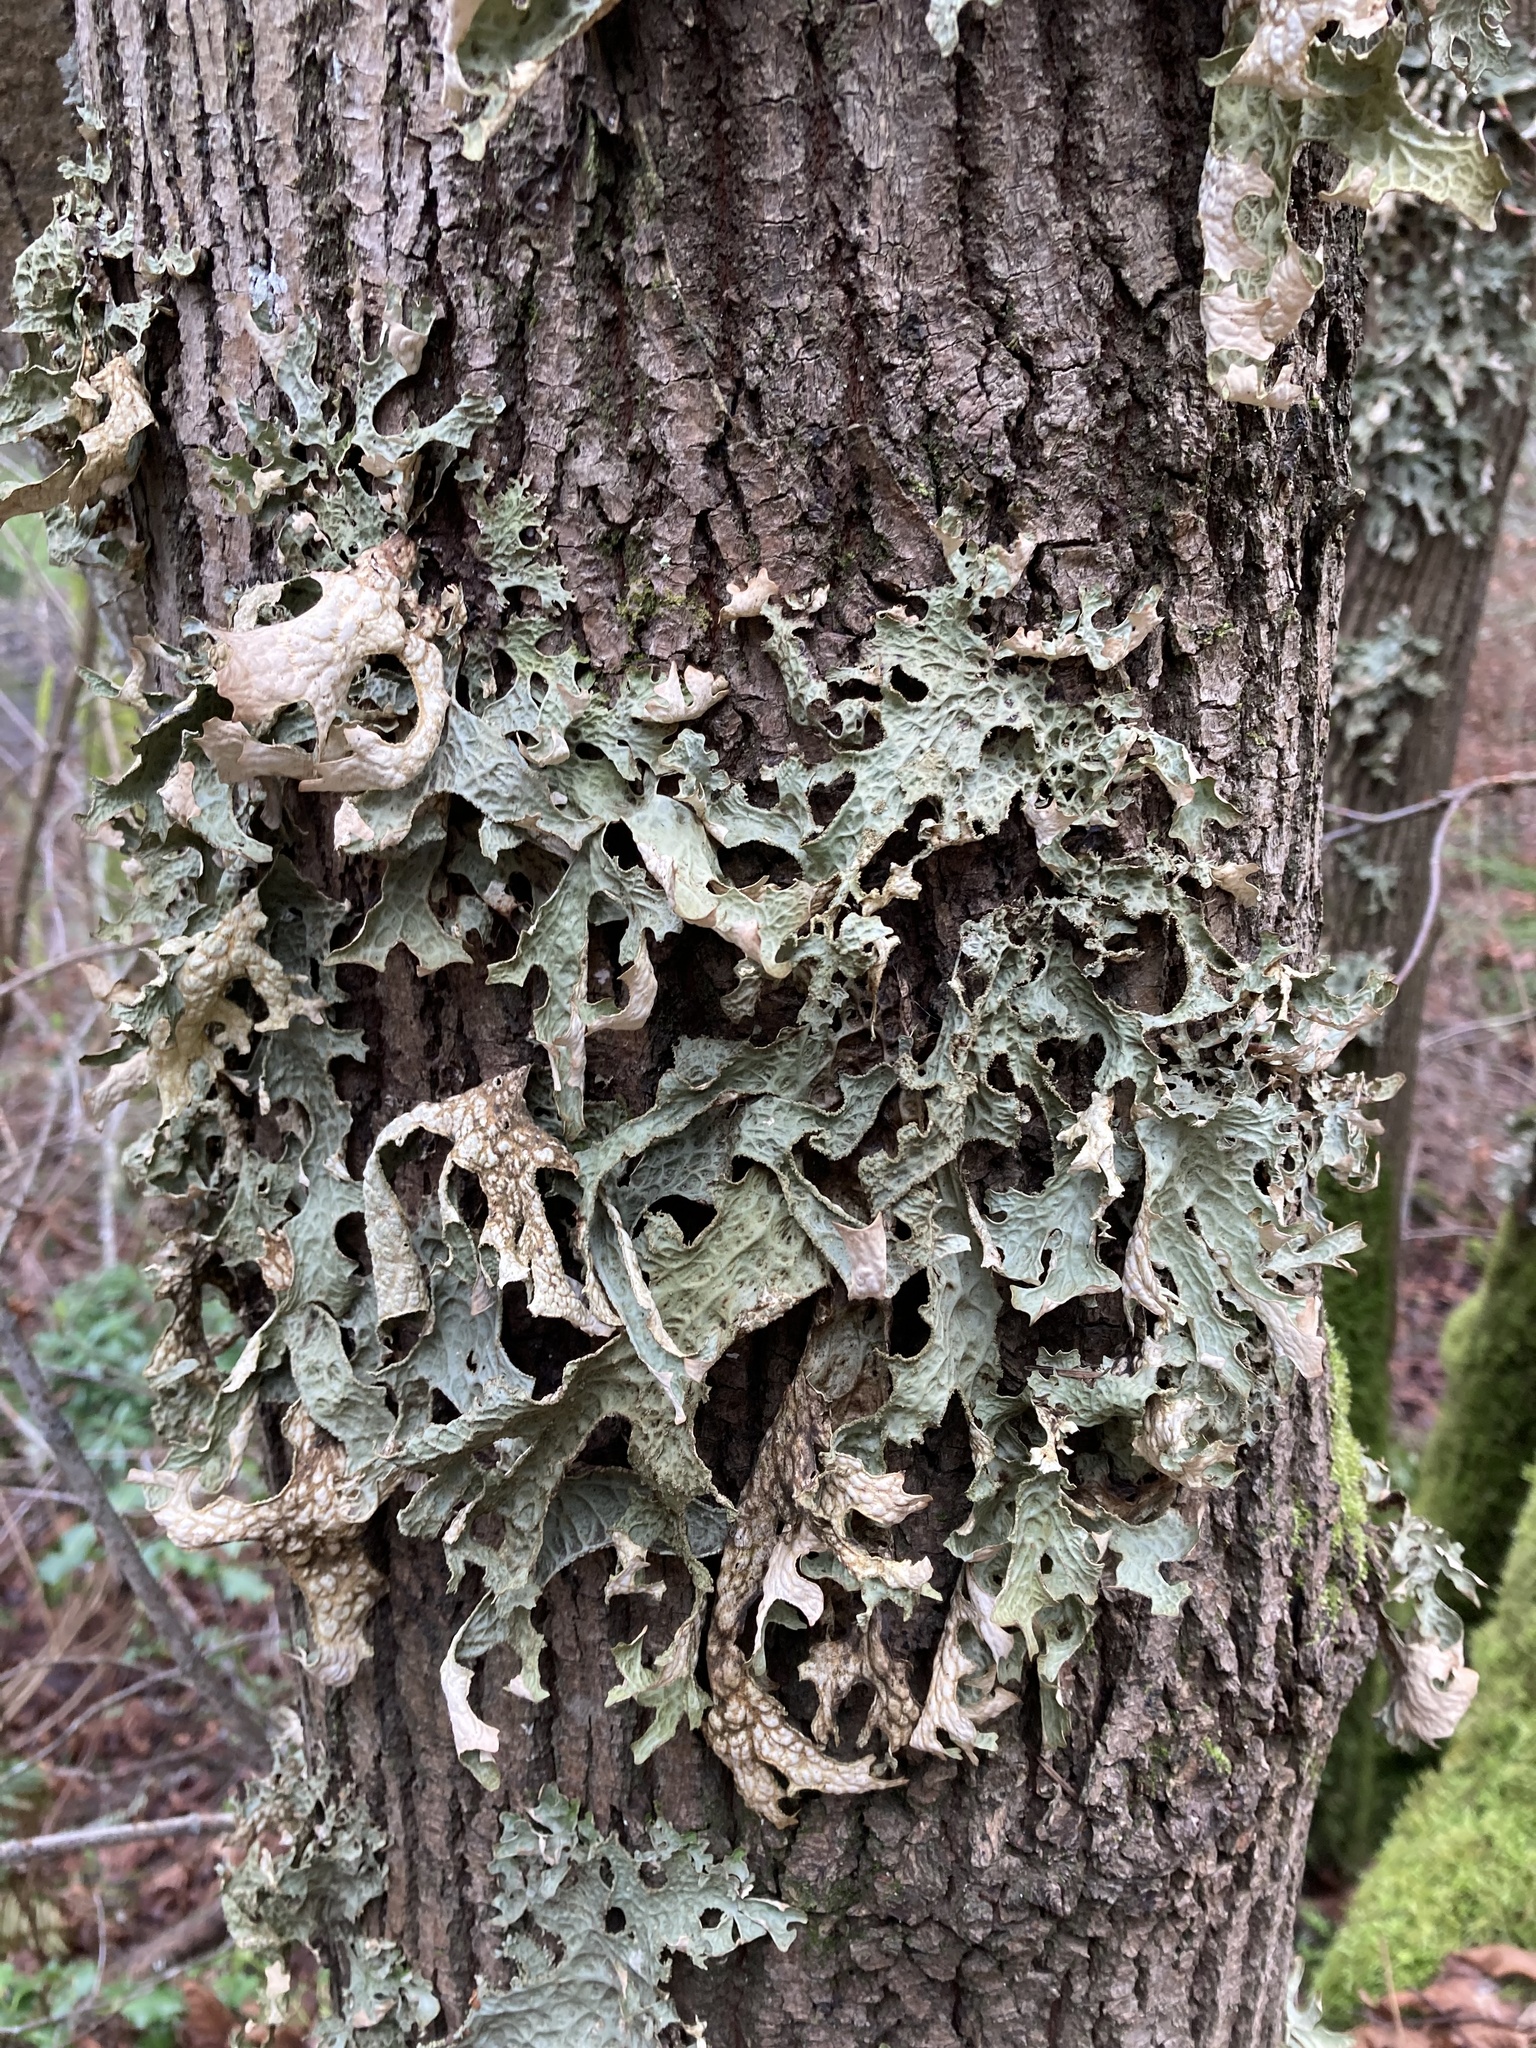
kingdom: Fungi
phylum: Ascomycota
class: Lecanoromycetes
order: Peltigerales
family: Lobariaceae
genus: Lobaria
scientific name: Lobaria pulmonaria
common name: Lungwort
